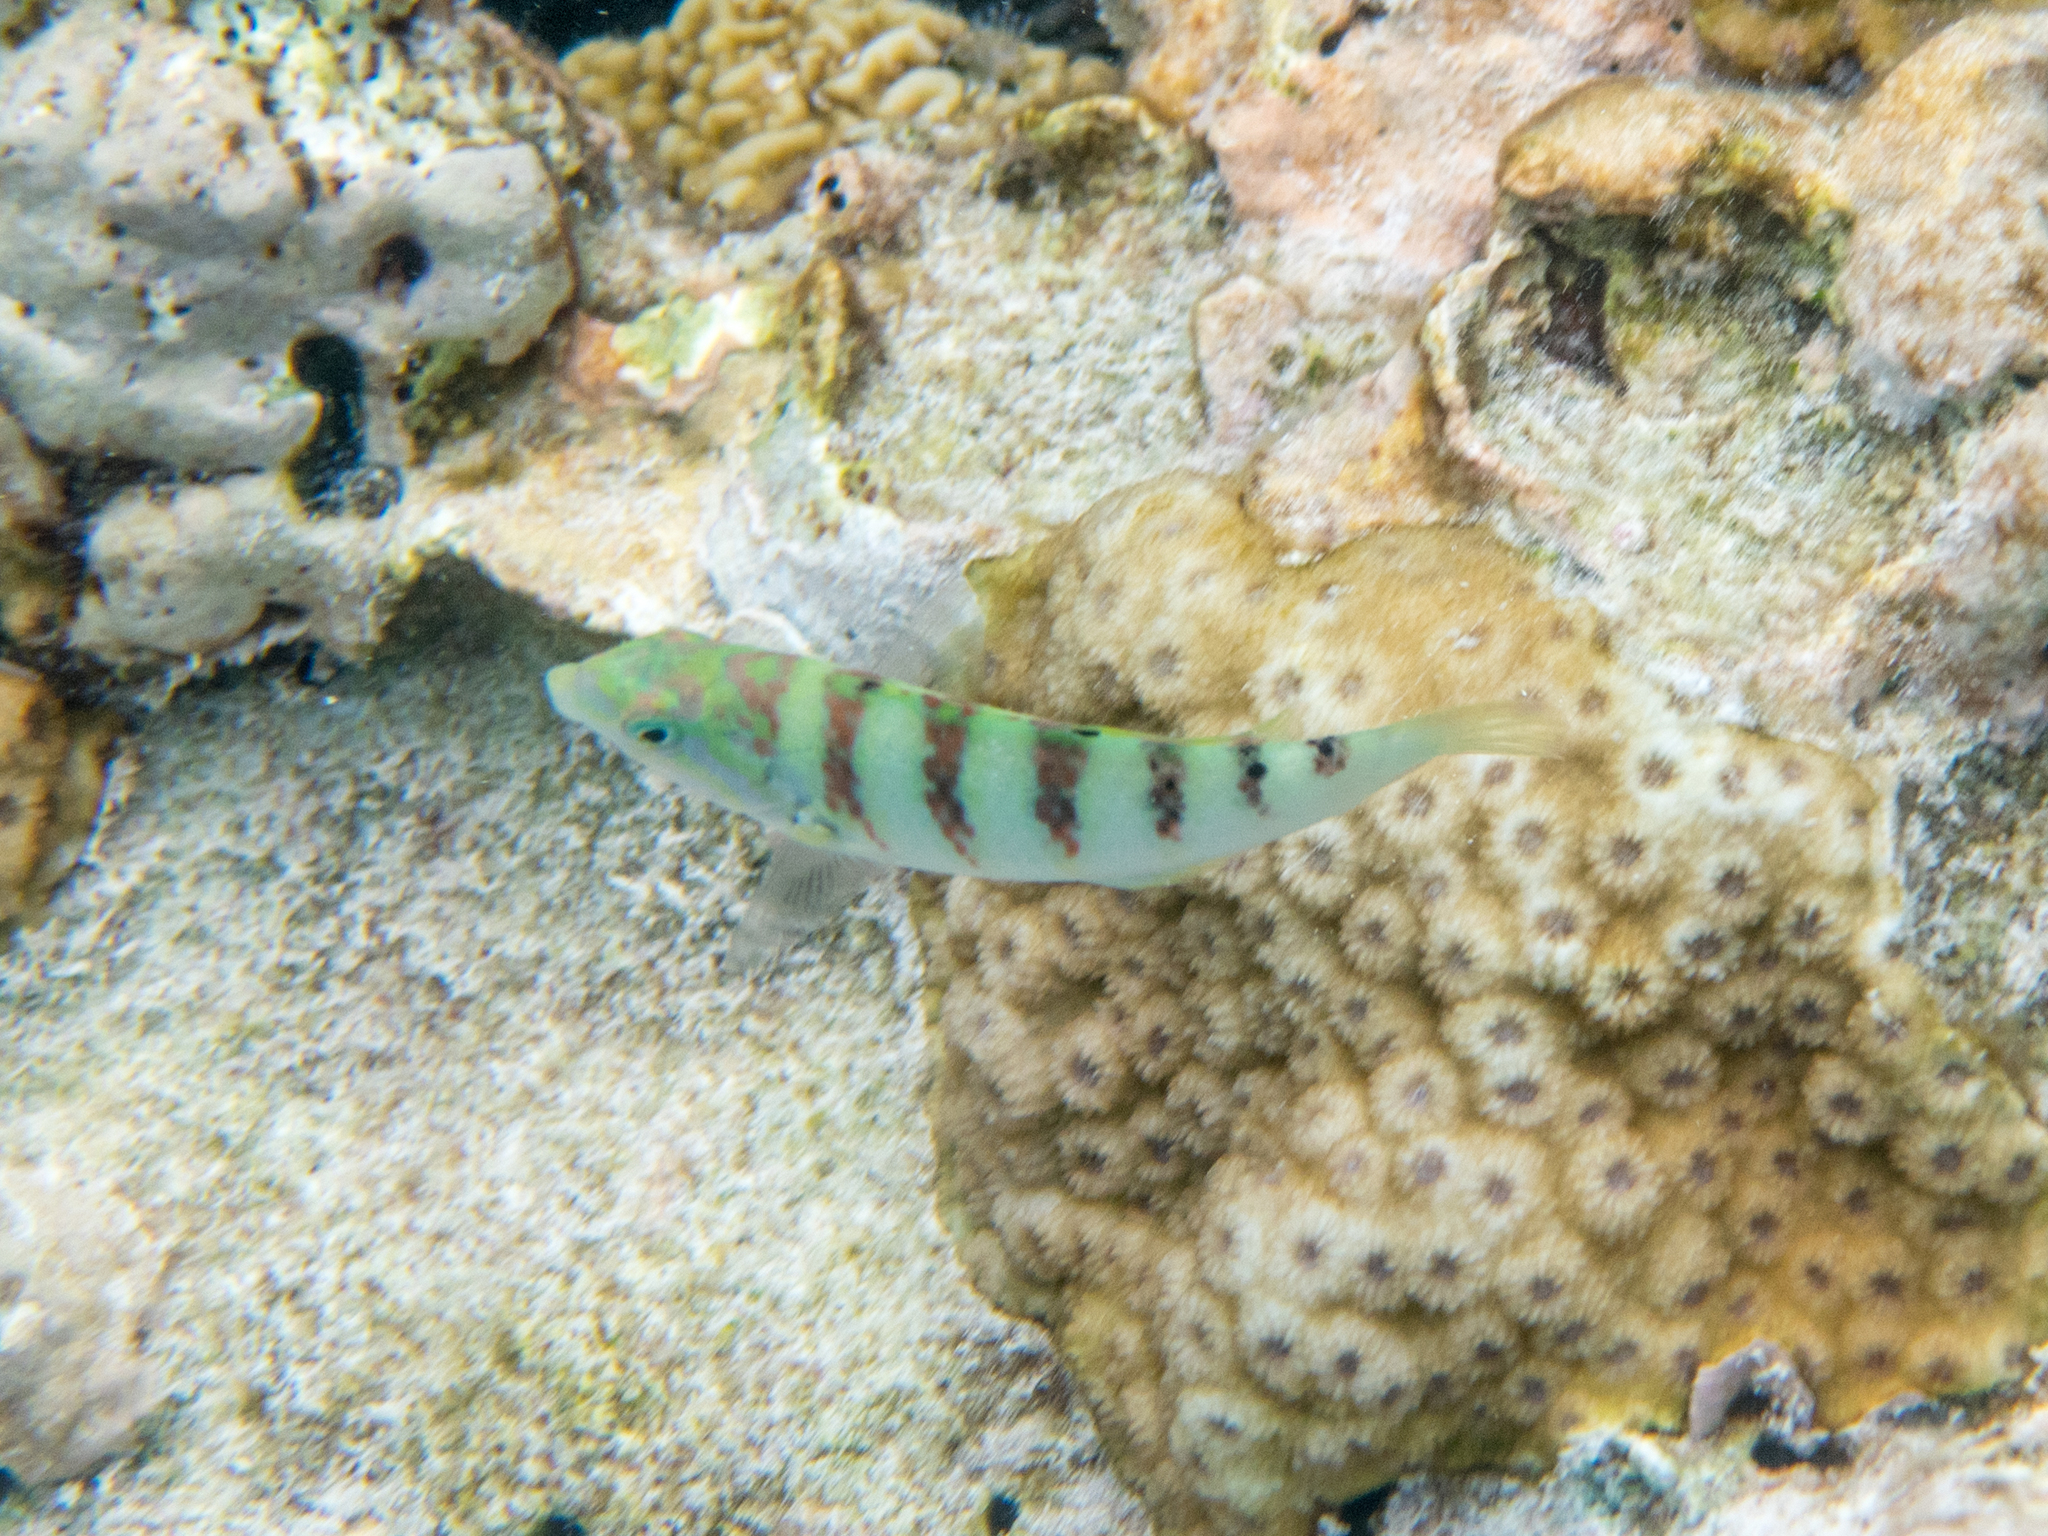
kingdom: Animalia
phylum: Chordata
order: Perciformes
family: Labridae
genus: Thalassoma
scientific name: Thalassoma hardwicke
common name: Sixbar wrasse
